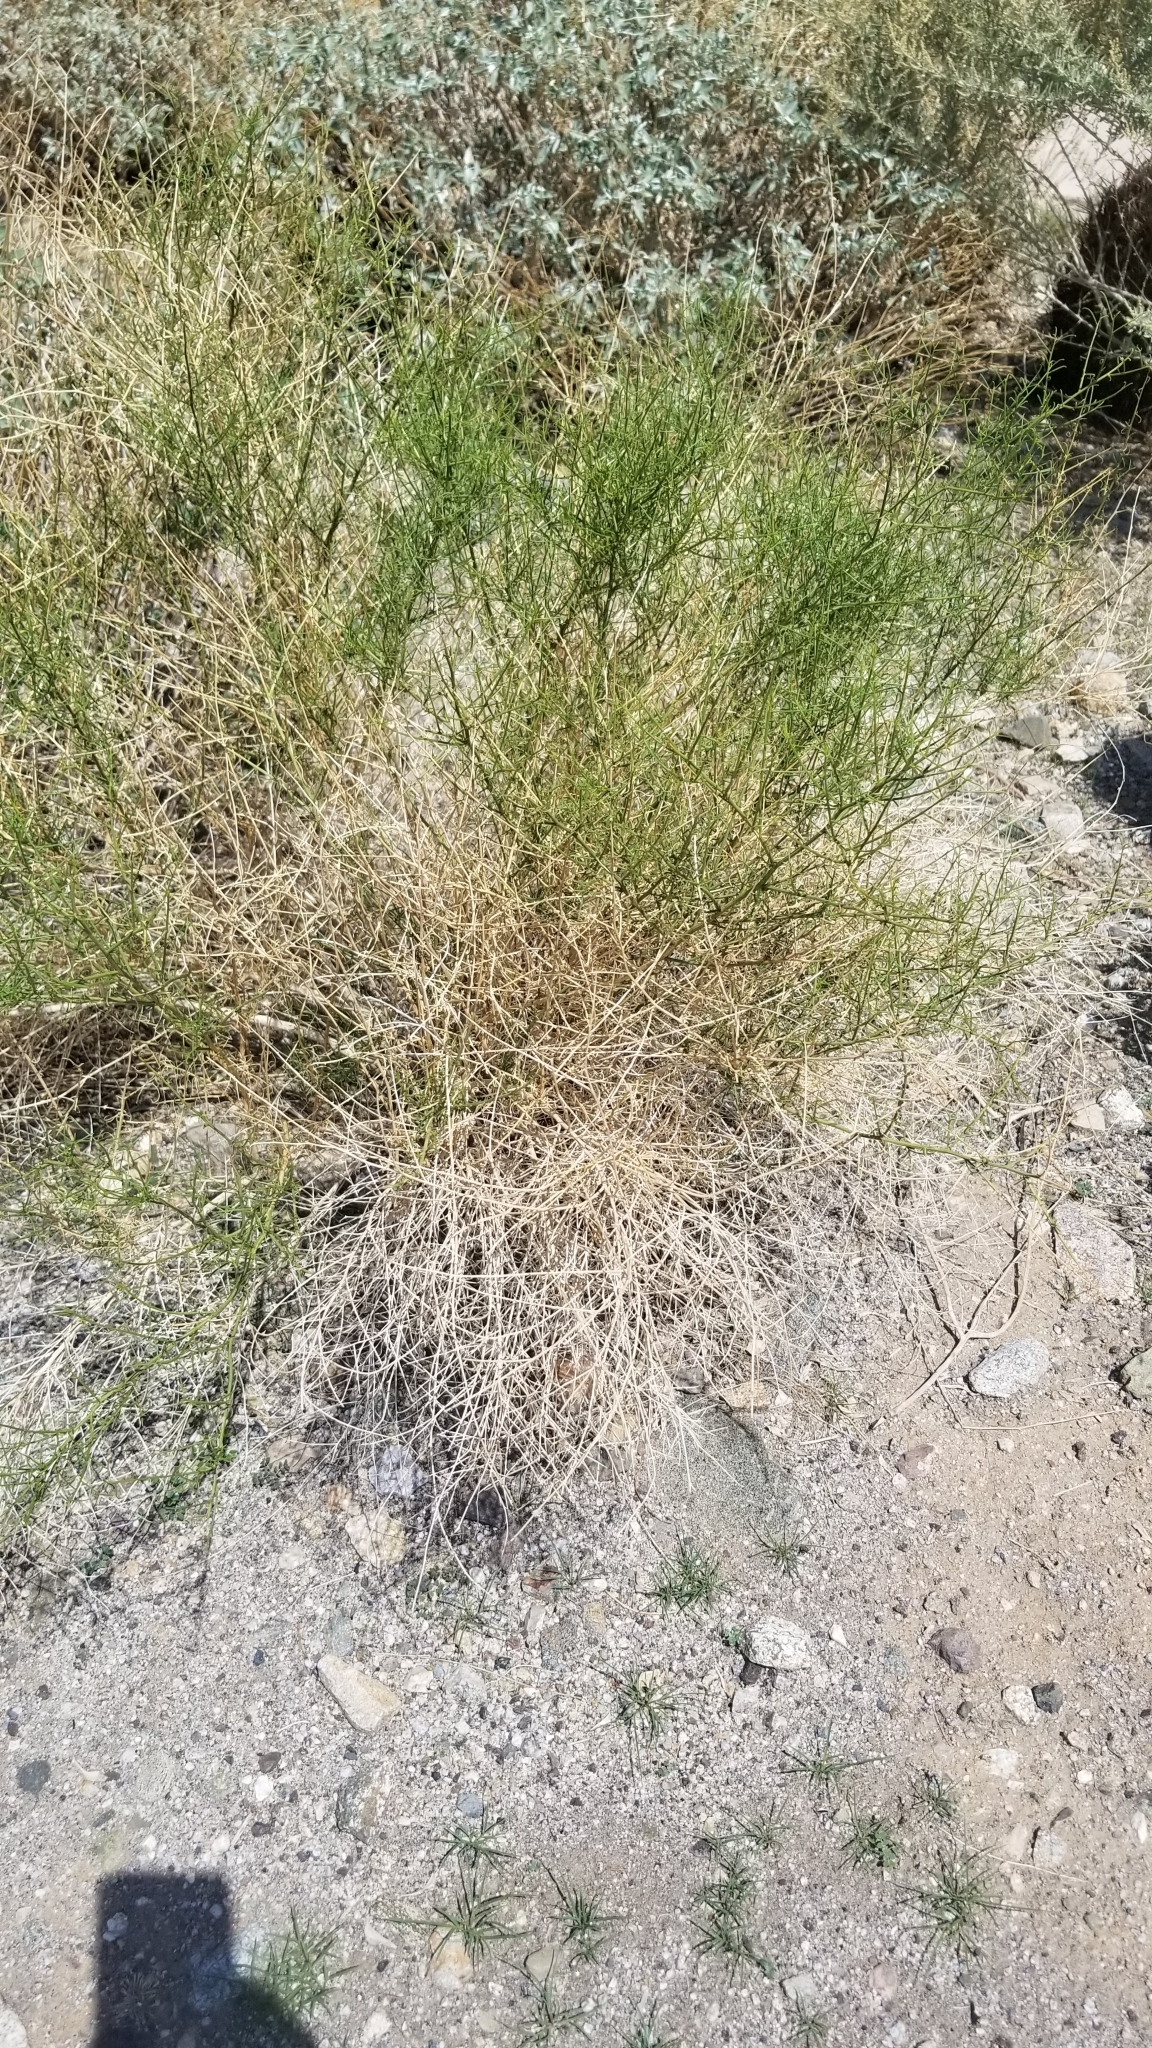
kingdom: Plantae
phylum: Tracheophyta
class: Magnoliopsida
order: Asterales
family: Asteraceae
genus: Ambrosia
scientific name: Ambrosia salsola
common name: Burrobrush
